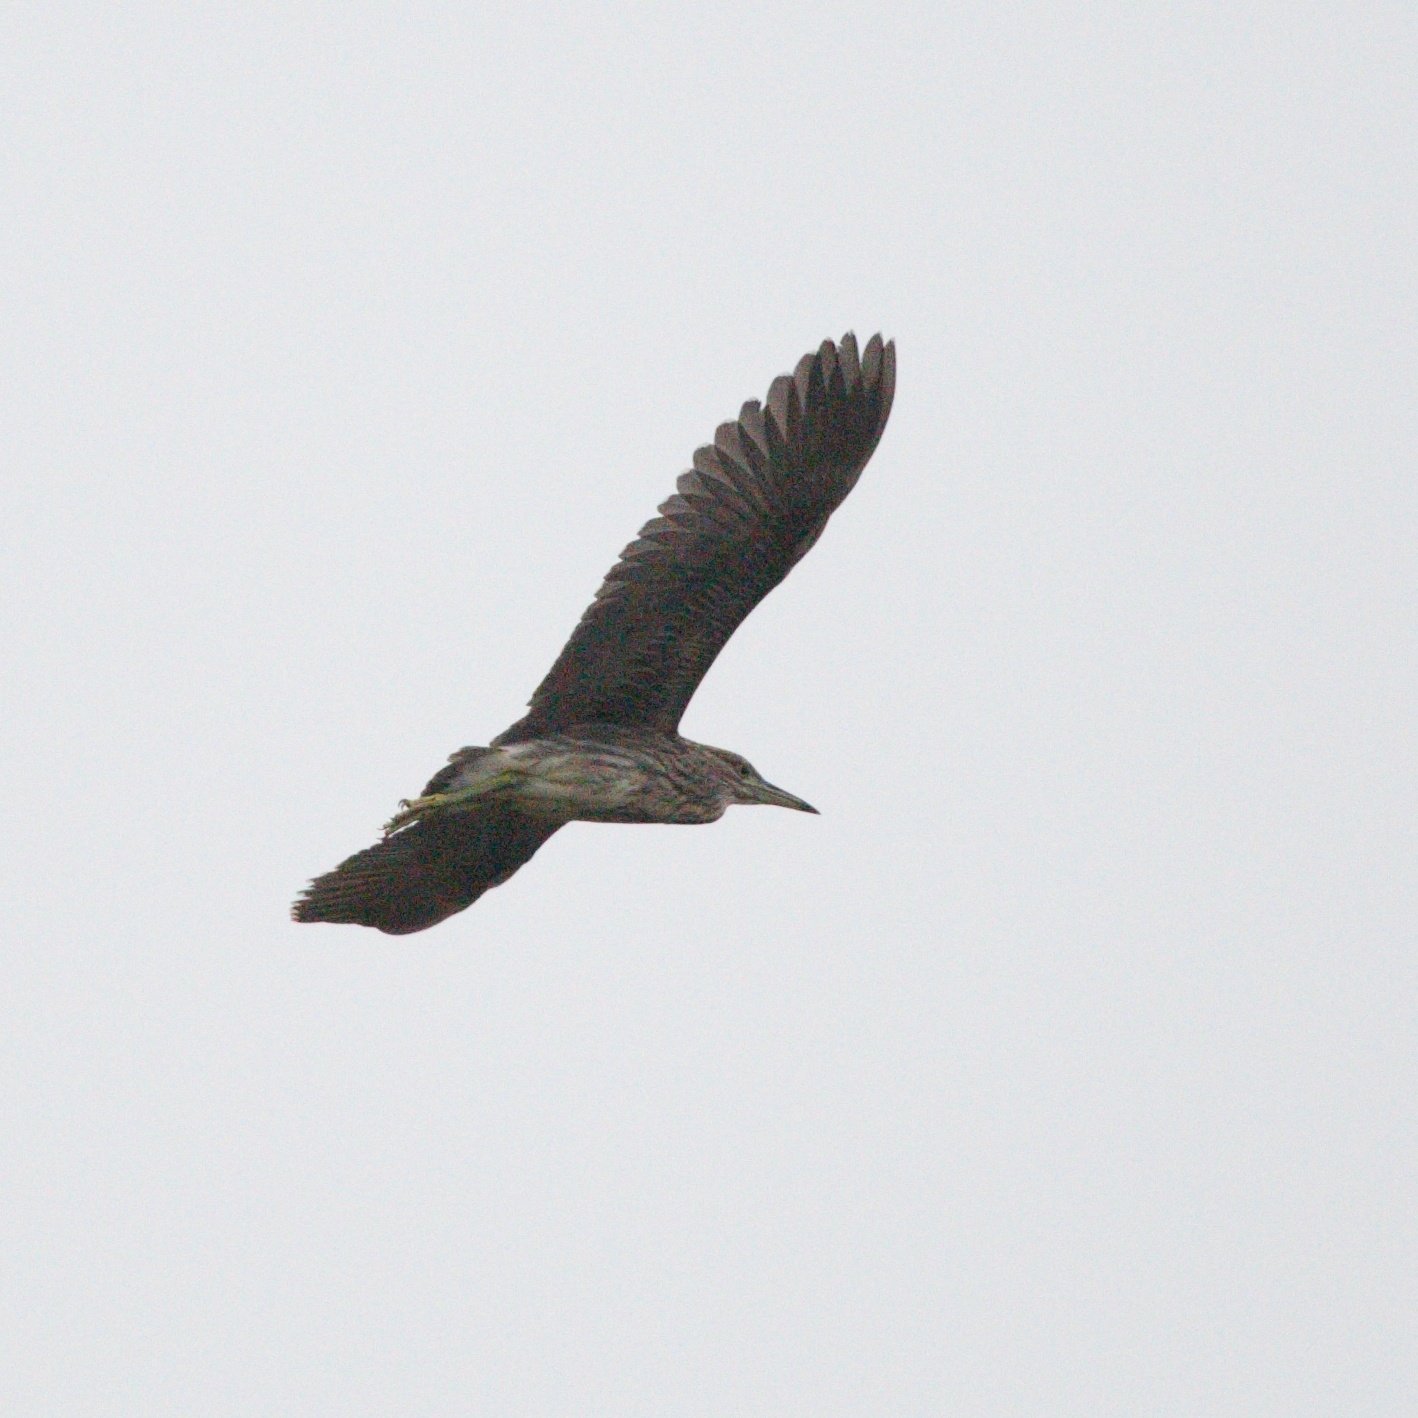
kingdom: Animalia
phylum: Chordata
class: Aves
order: Pelecaniformes
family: Ardeidae
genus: Nycticorax
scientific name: Nycticorax nycticorax
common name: Black-crowned night heron
